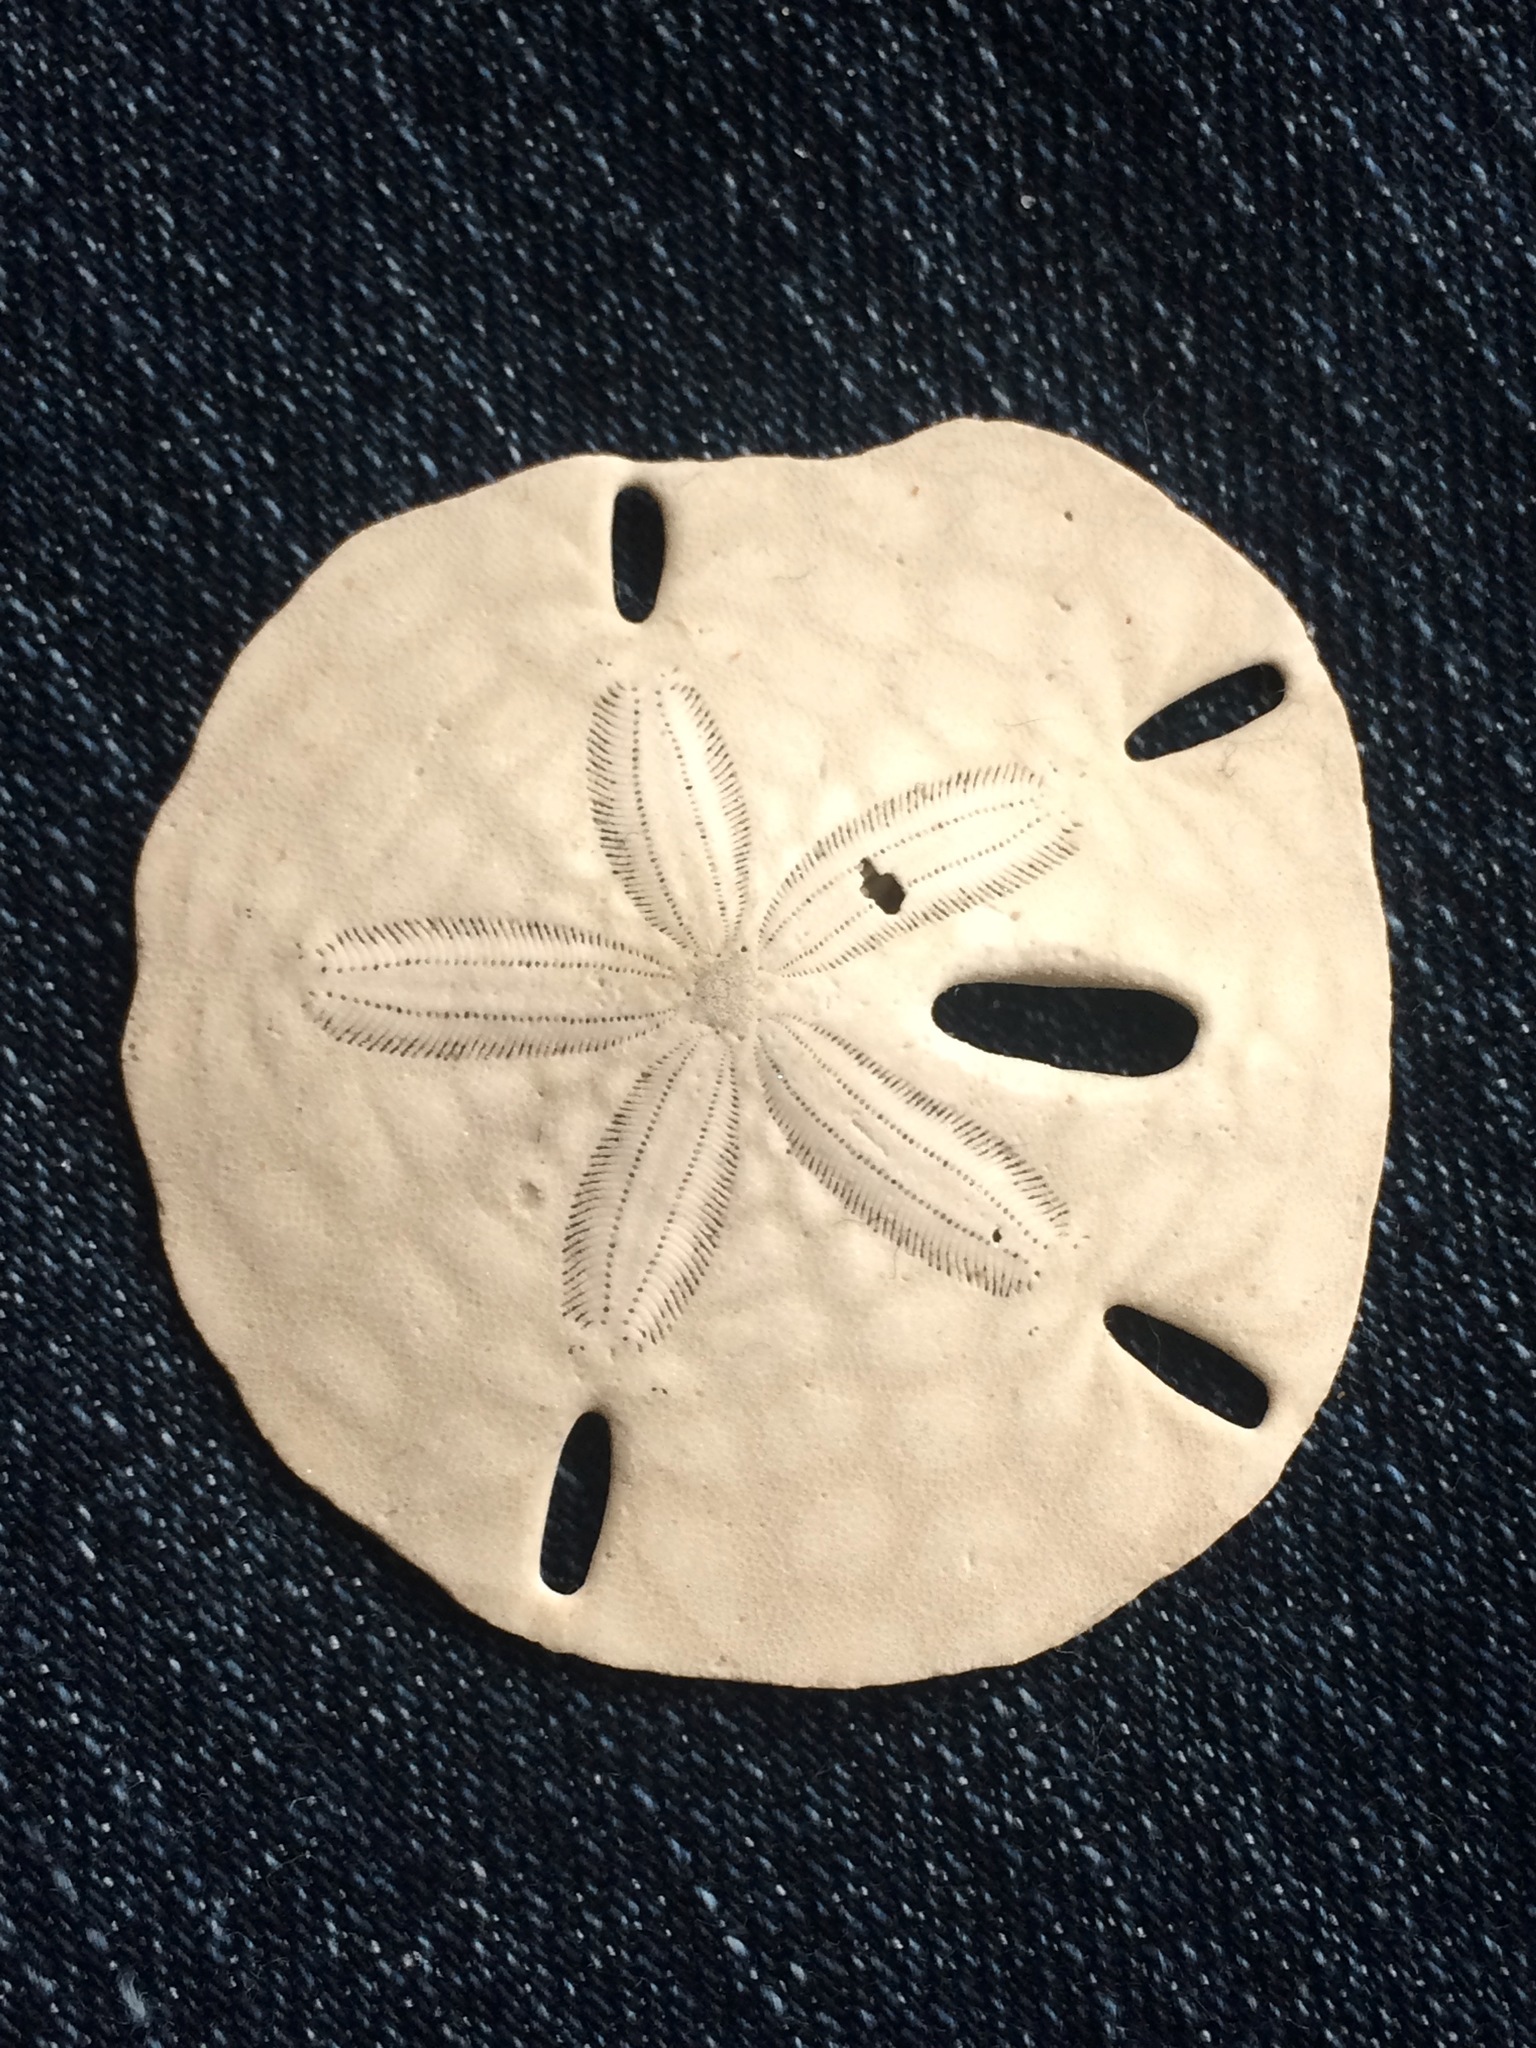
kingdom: Animalia
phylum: Echinodermata
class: Echinoidea
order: Echinolampadacea
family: Mellitidae
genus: Mellita
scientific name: Mellita quinquiesperforata
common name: Sand dollar
